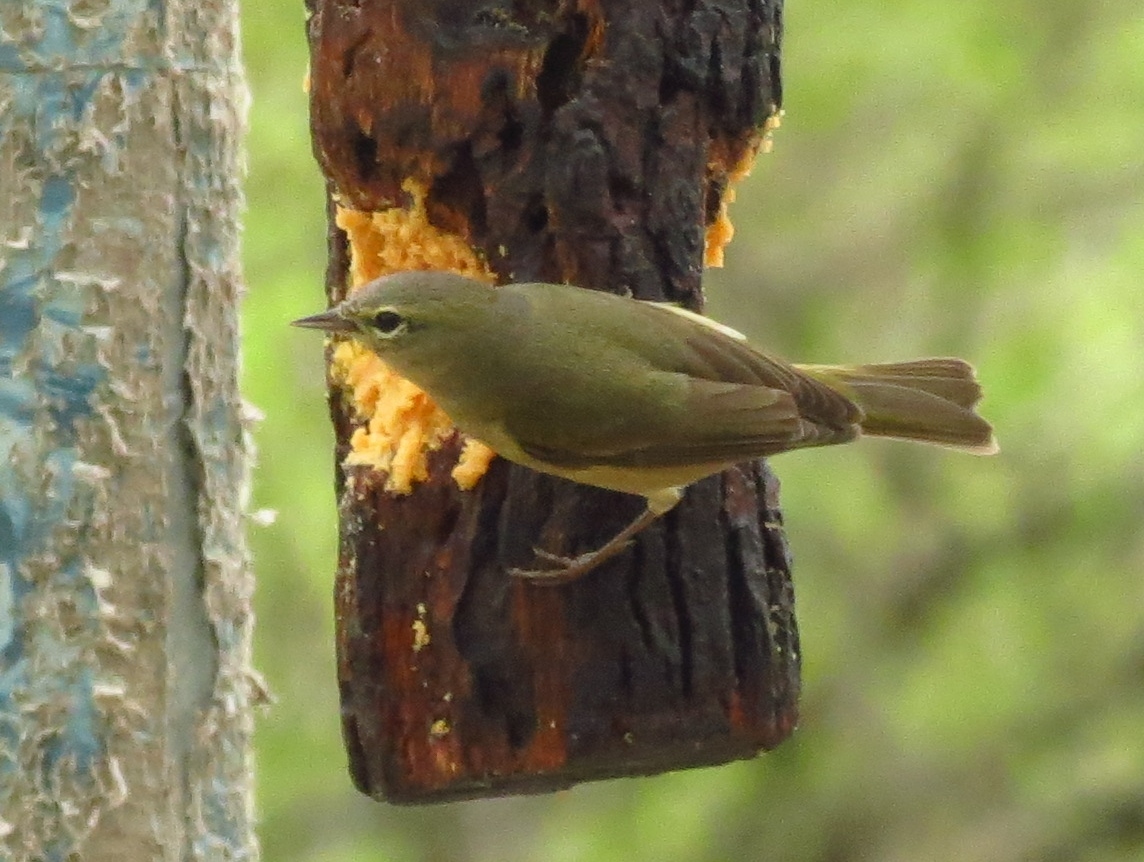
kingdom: Animalia
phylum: Chordata
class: Aves
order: Passeriformes
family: Parulidae
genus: Leiothlypis
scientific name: Leiothlypis celata
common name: Orange-crowned warbler
